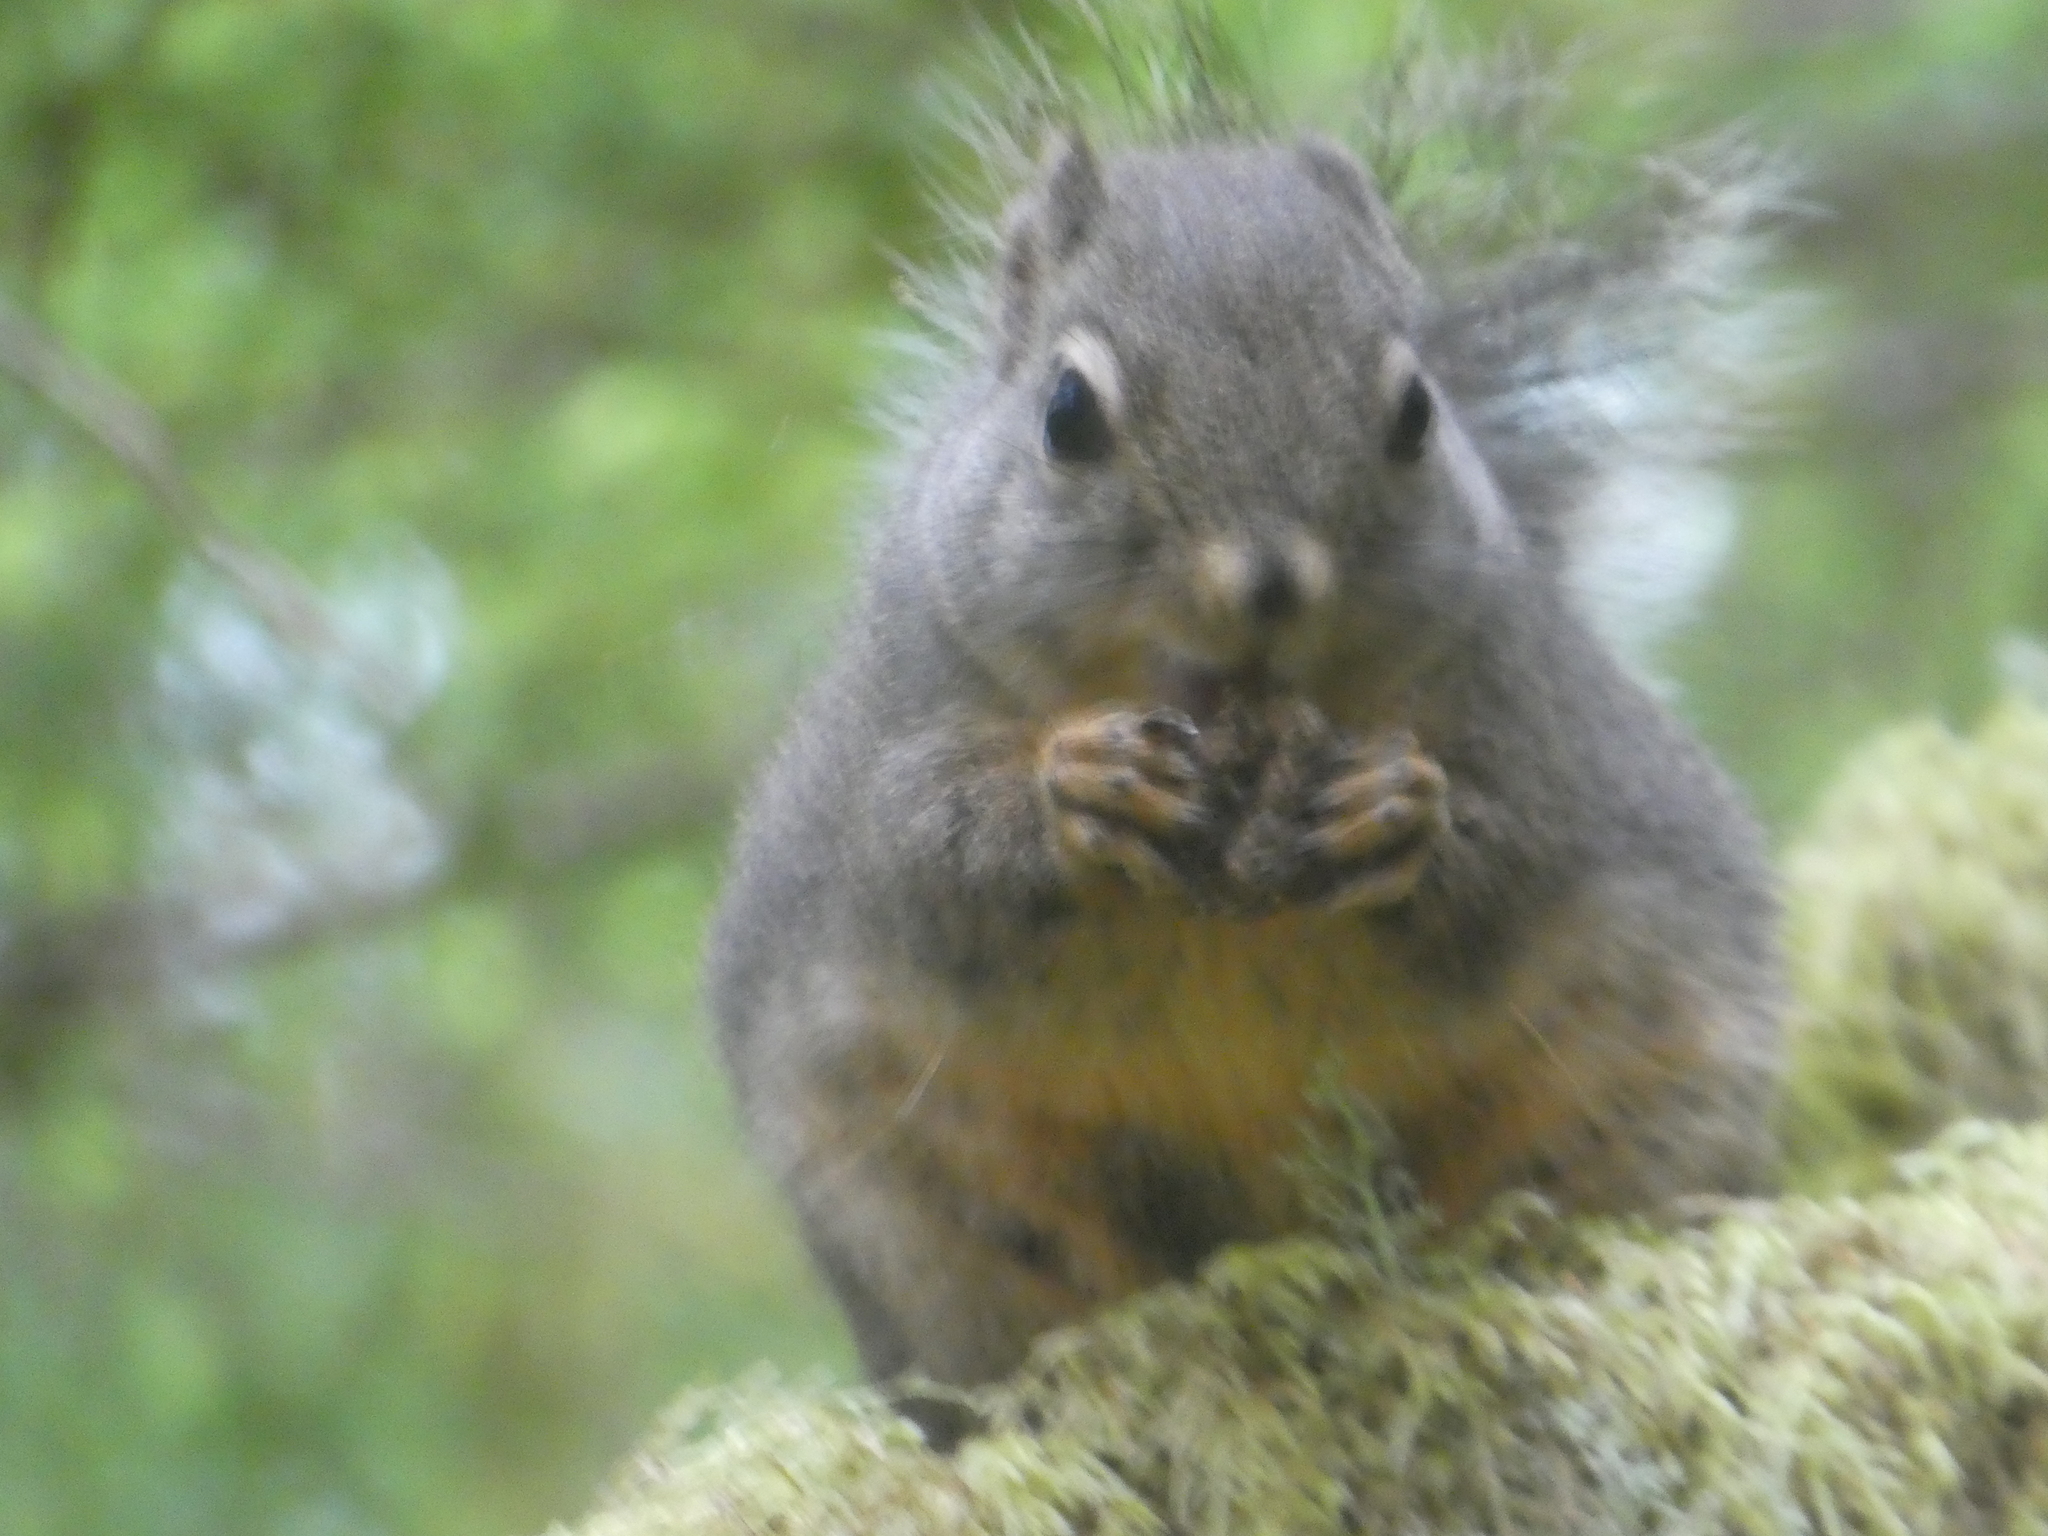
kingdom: Animalia
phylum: Chordata
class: Mammalia
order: Rodentia
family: Sciuridae
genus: Tamiasciurus
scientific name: Tamiasciurus douglasii
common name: Douglas's squirrel
